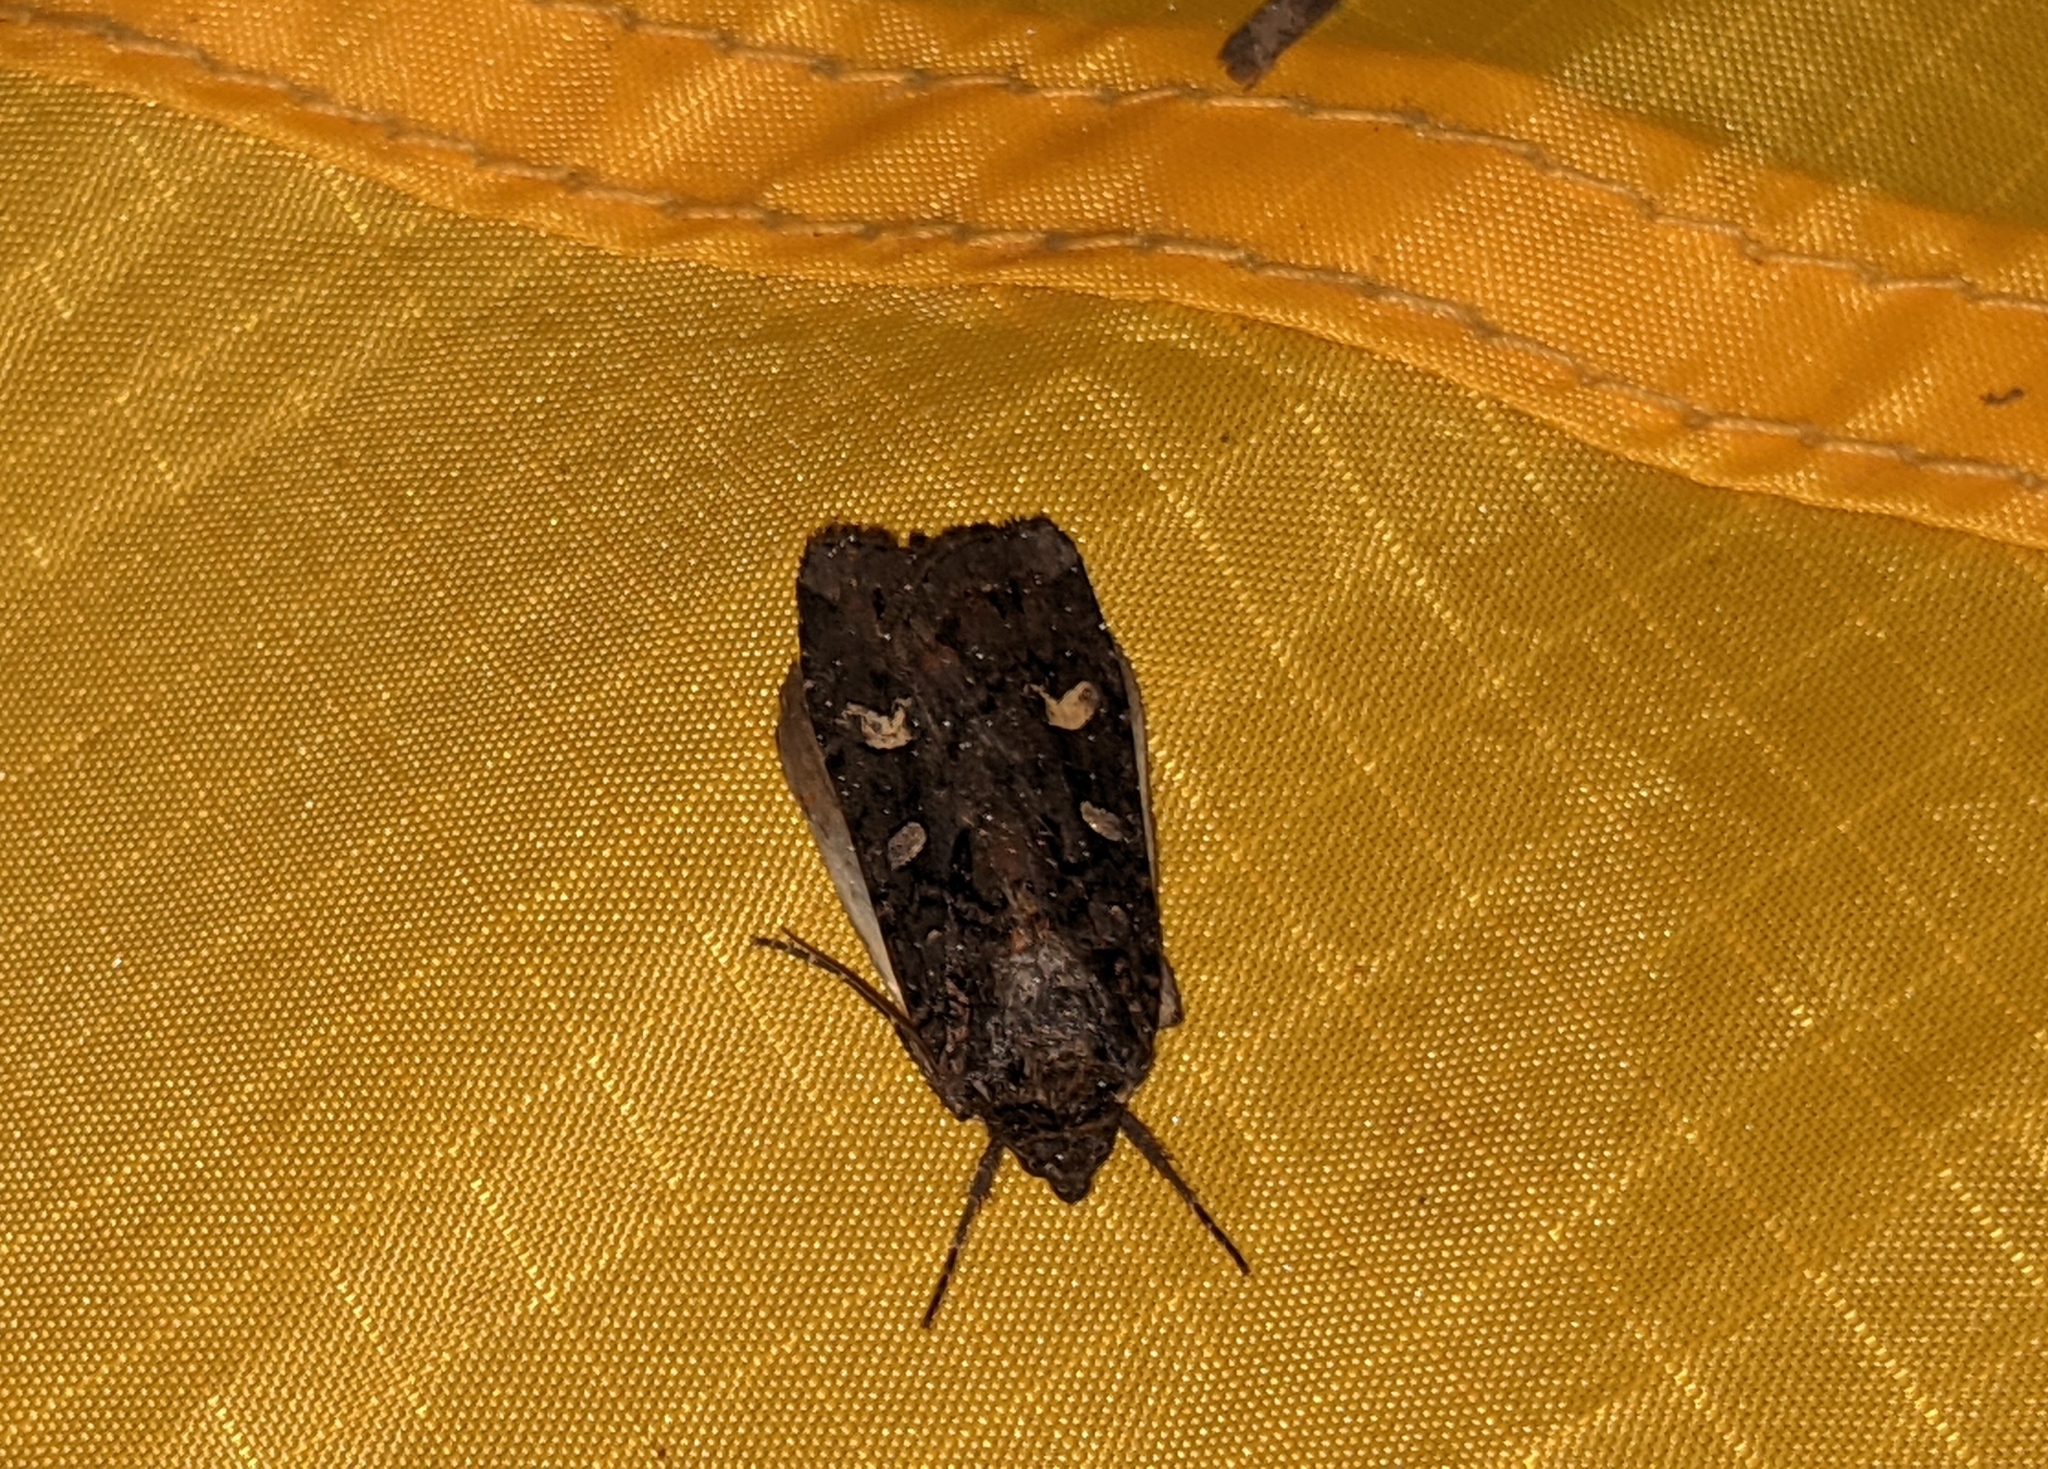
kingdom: Animalia
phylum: Arthropoda
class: Insecta
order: Lepidoptera
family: Noctuidae
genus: Actebia
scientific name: Actebia fennica
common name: Eversmann's rustic
